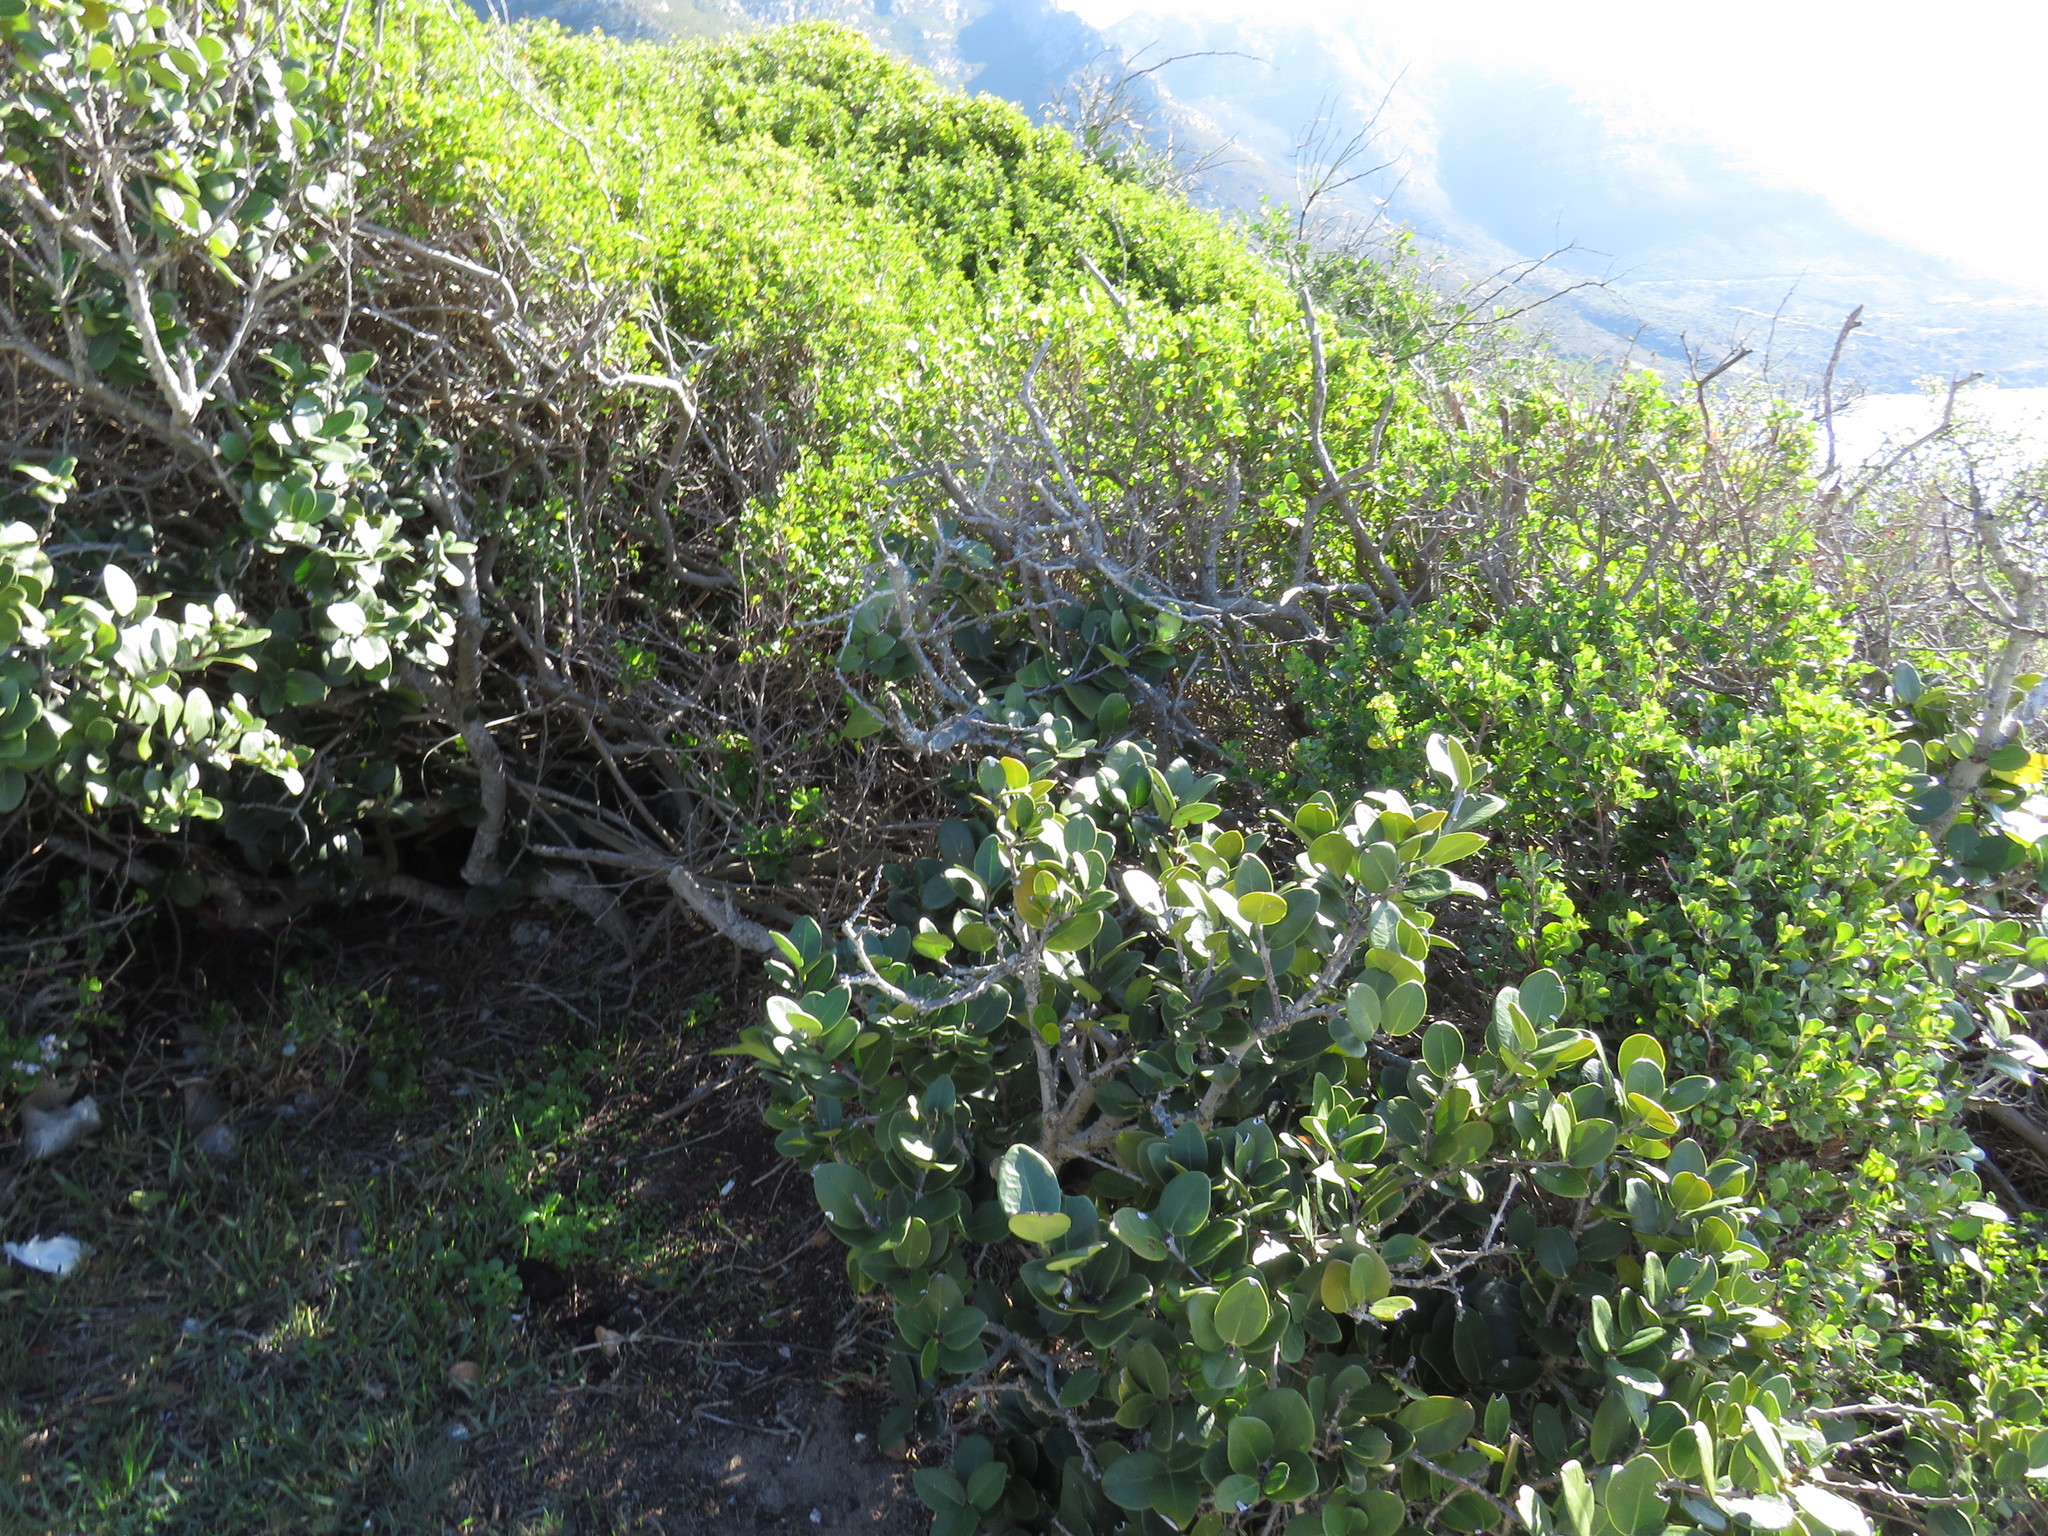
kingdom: Plantae
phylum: Tracheophyta
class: Magnoliopsida
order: Celastrales
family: Celastraceae
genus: Maurocenia
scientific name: Maurocenia frangula
